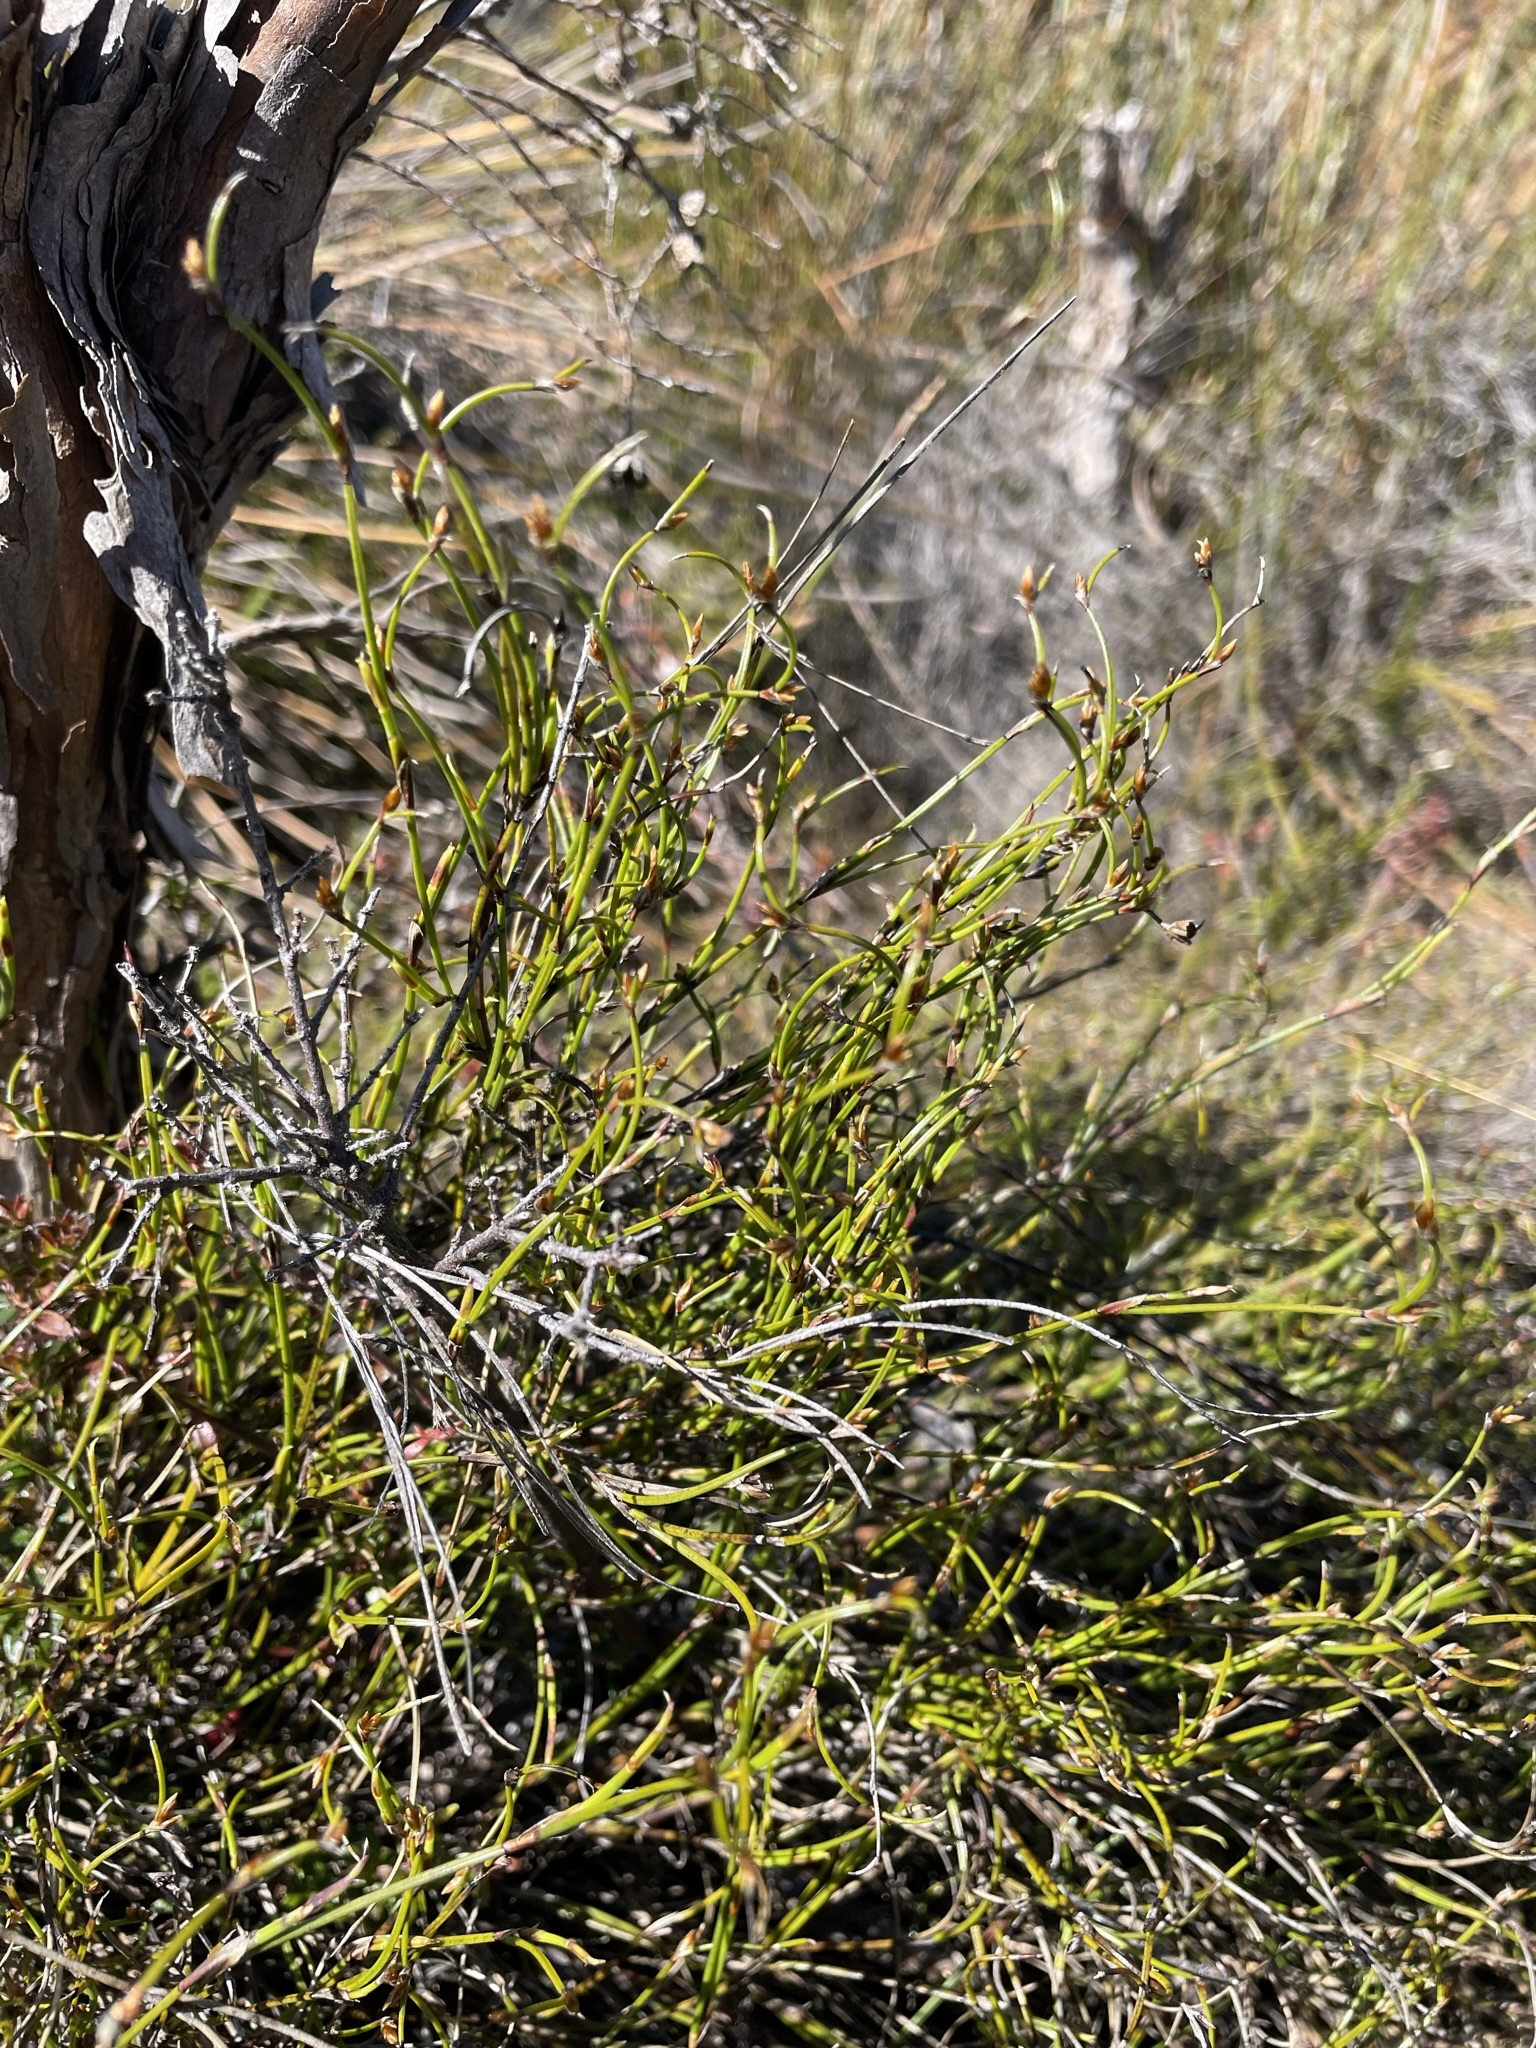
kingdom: Plantae
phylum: Tracheophyta
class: Liliopsida
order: Poales
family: Restionaceae
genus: Empodisma
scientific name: Empodisma minus
